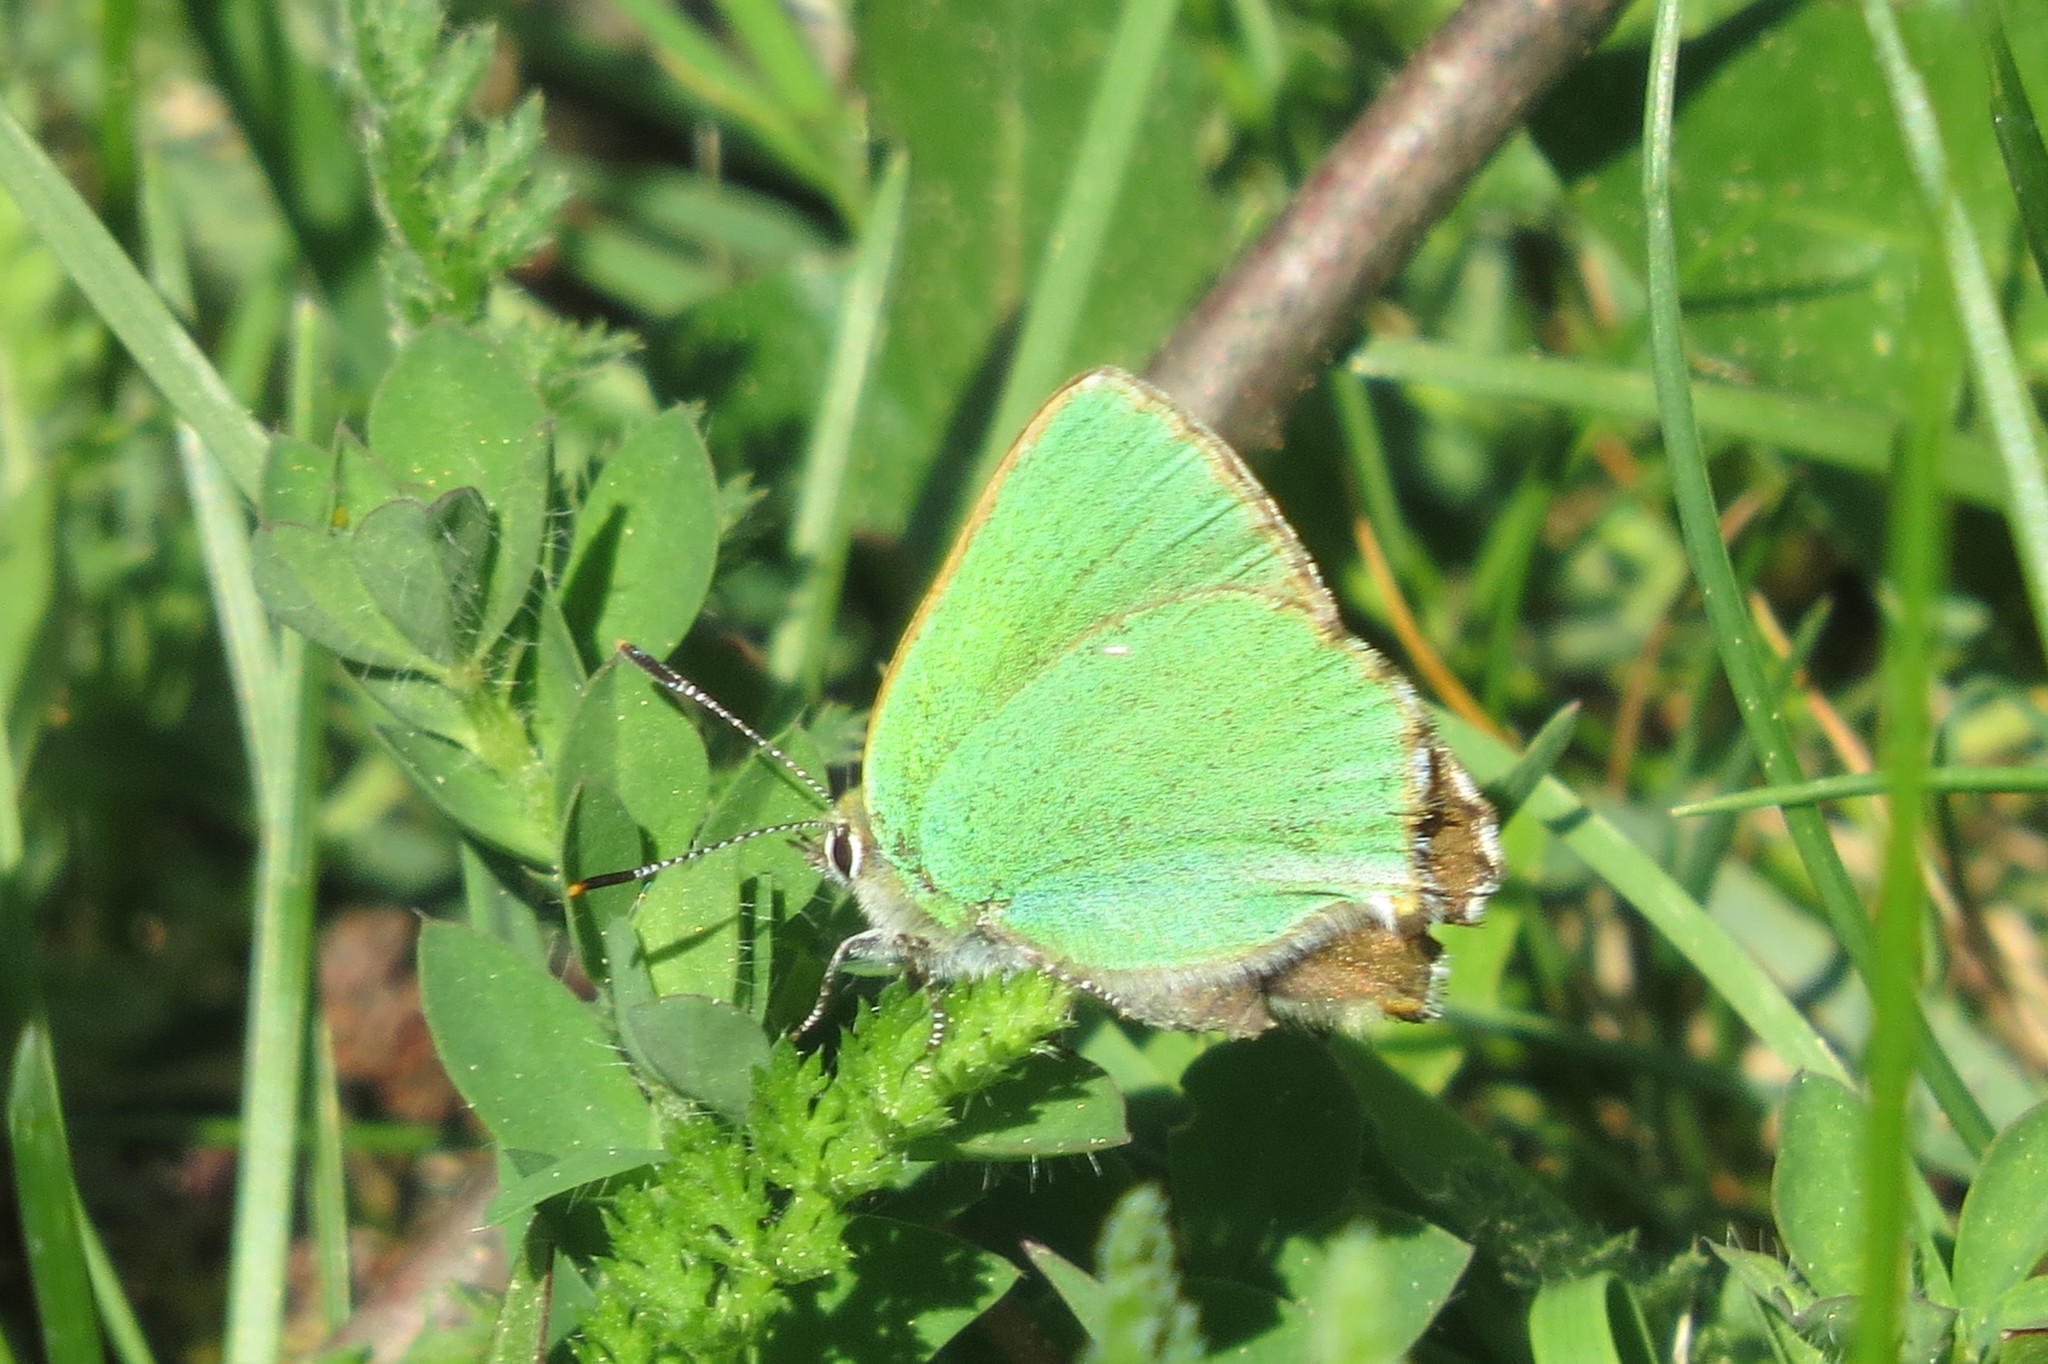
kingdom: Animalia
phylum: Arthropoda
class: Insecta
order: Lepidoptera
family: Lycaenidae
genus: Callophrys
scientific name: Callophrys rubi
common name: Green hairstreak
